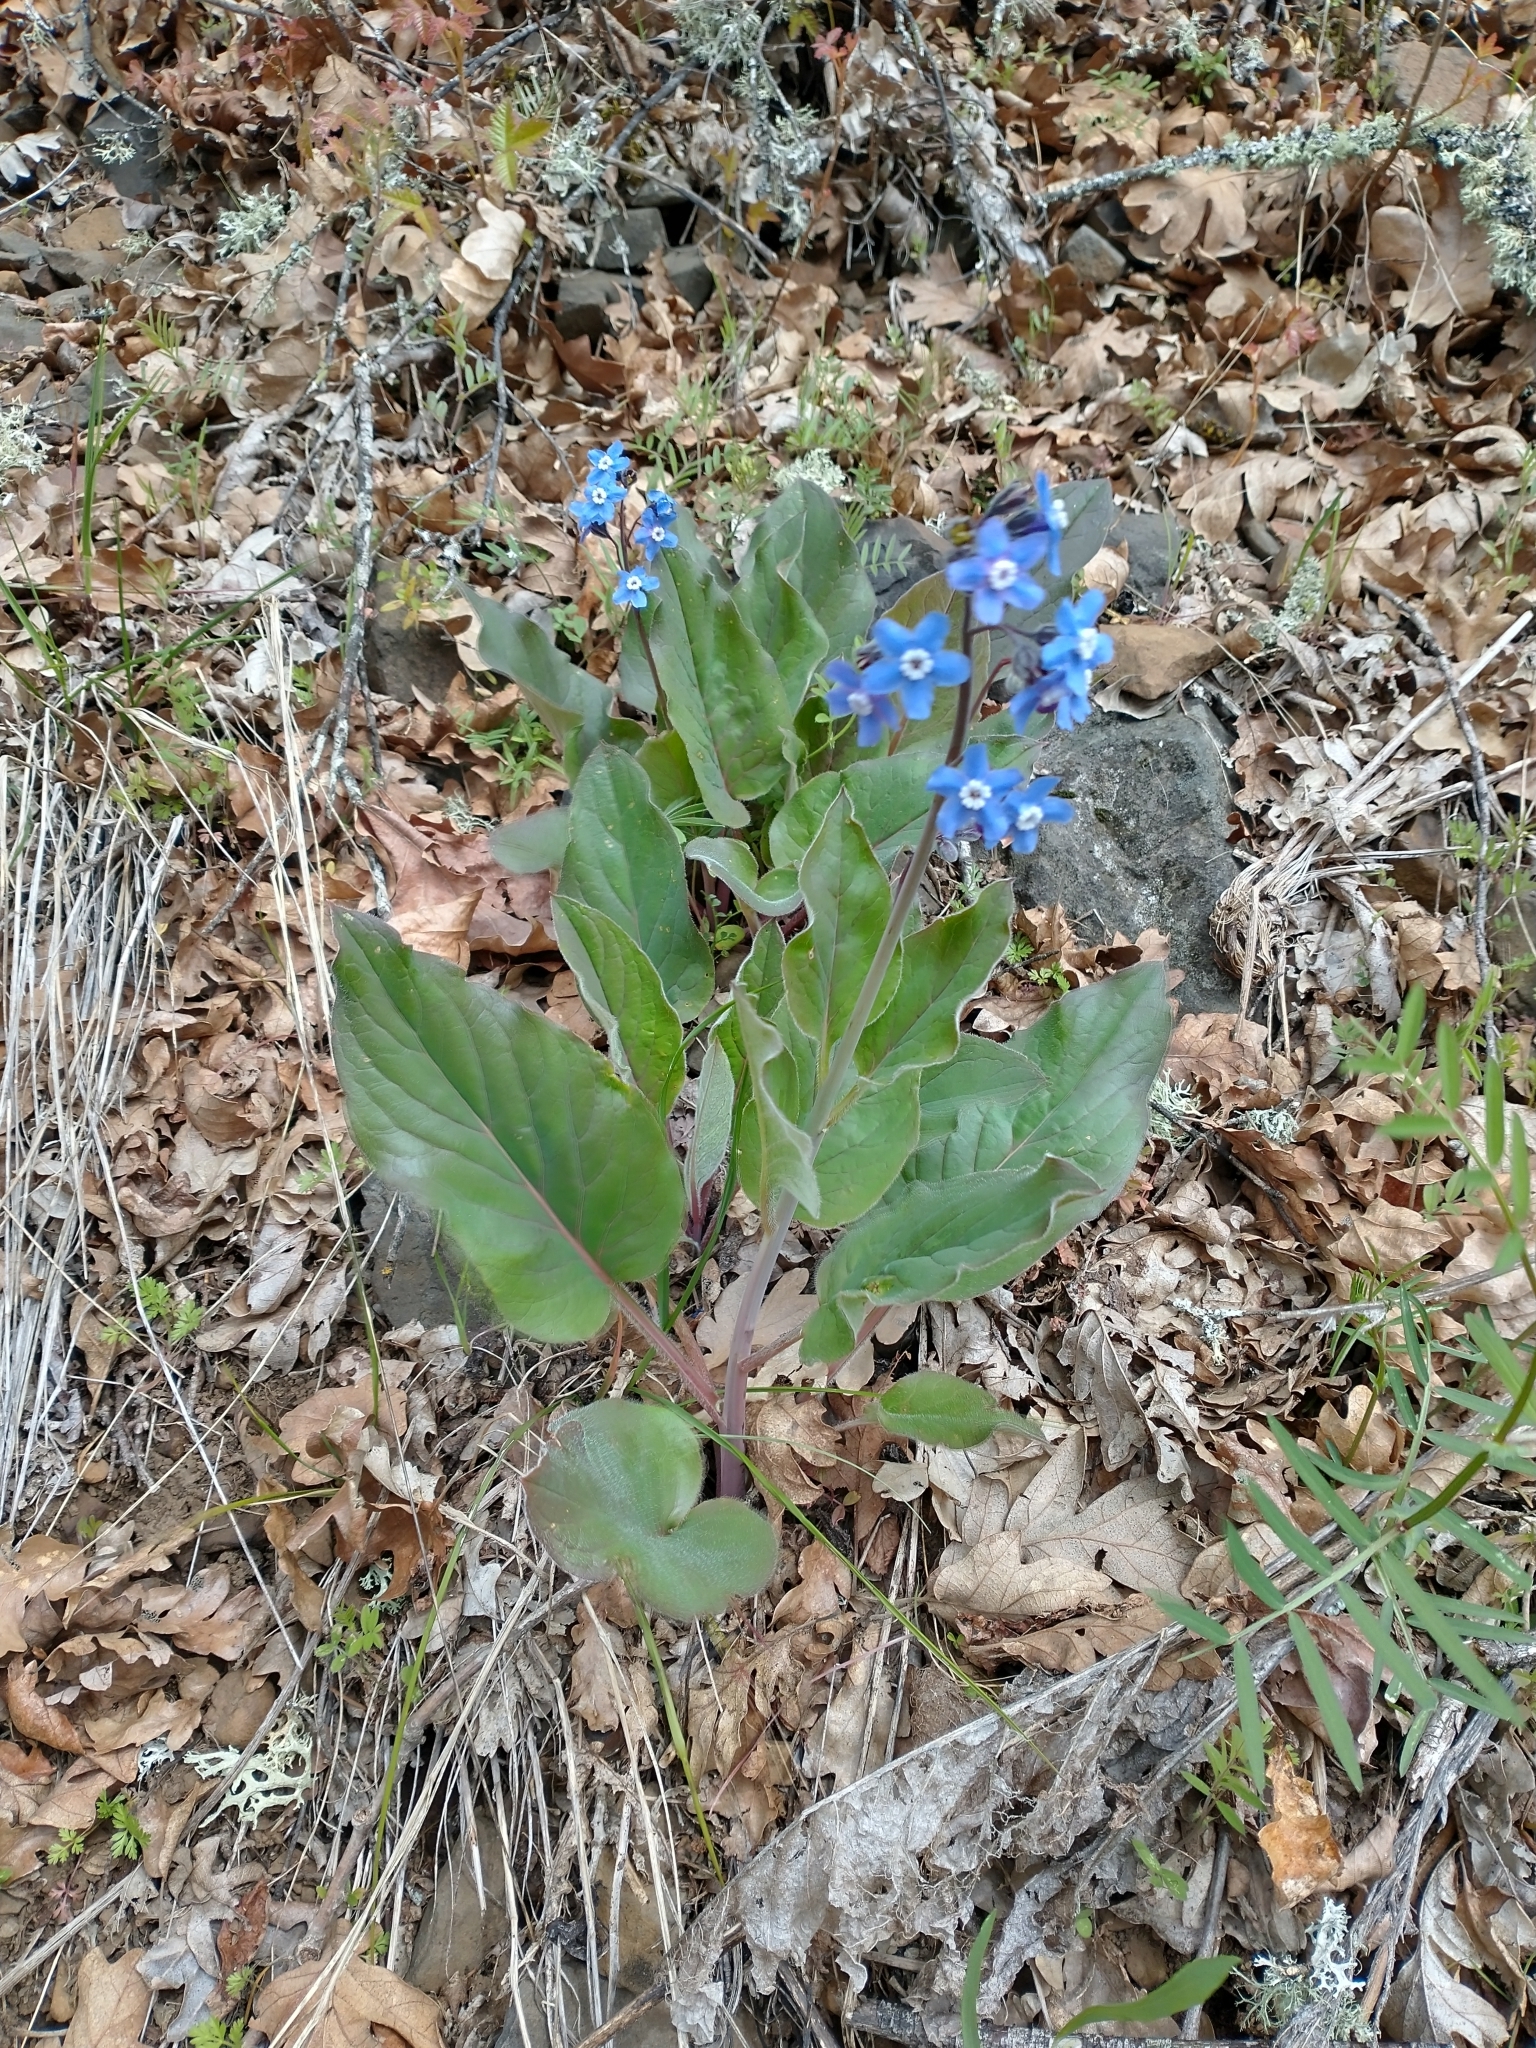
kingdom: Plantae
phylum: Tracheophyta
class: Magnoliopsida
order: Boraginales
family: Boraginaceae
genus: Adelinia
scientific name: Adelinia grande
